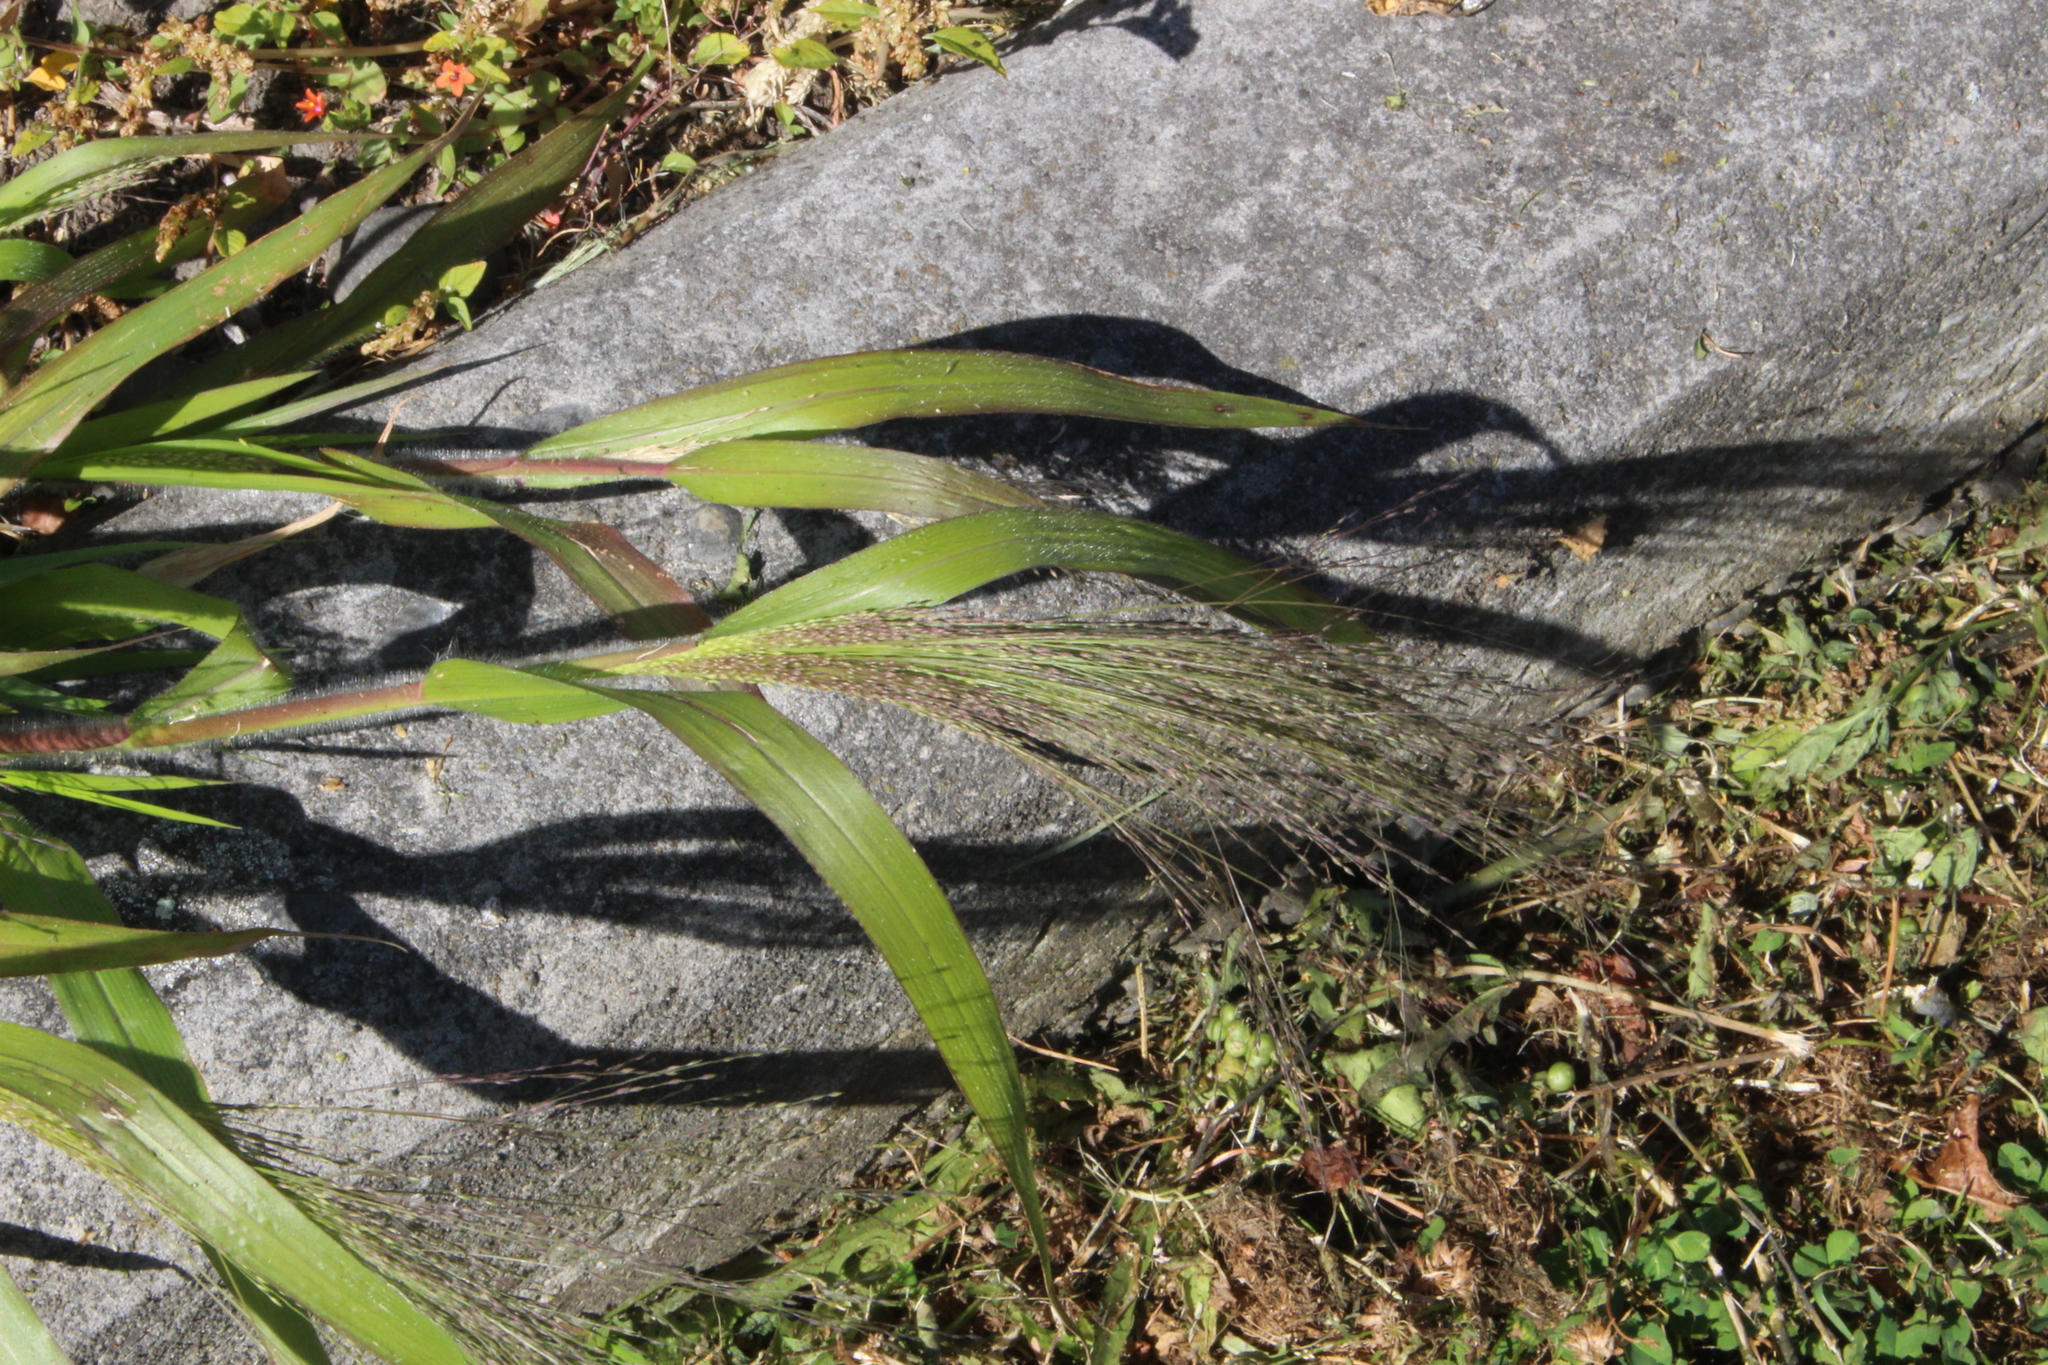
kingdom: Plantae
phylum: Tracheophyta
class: Liliopsida
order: Poales
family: Poaceae
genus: Panicum
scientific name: Panicum capillare
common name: Witch-grass
